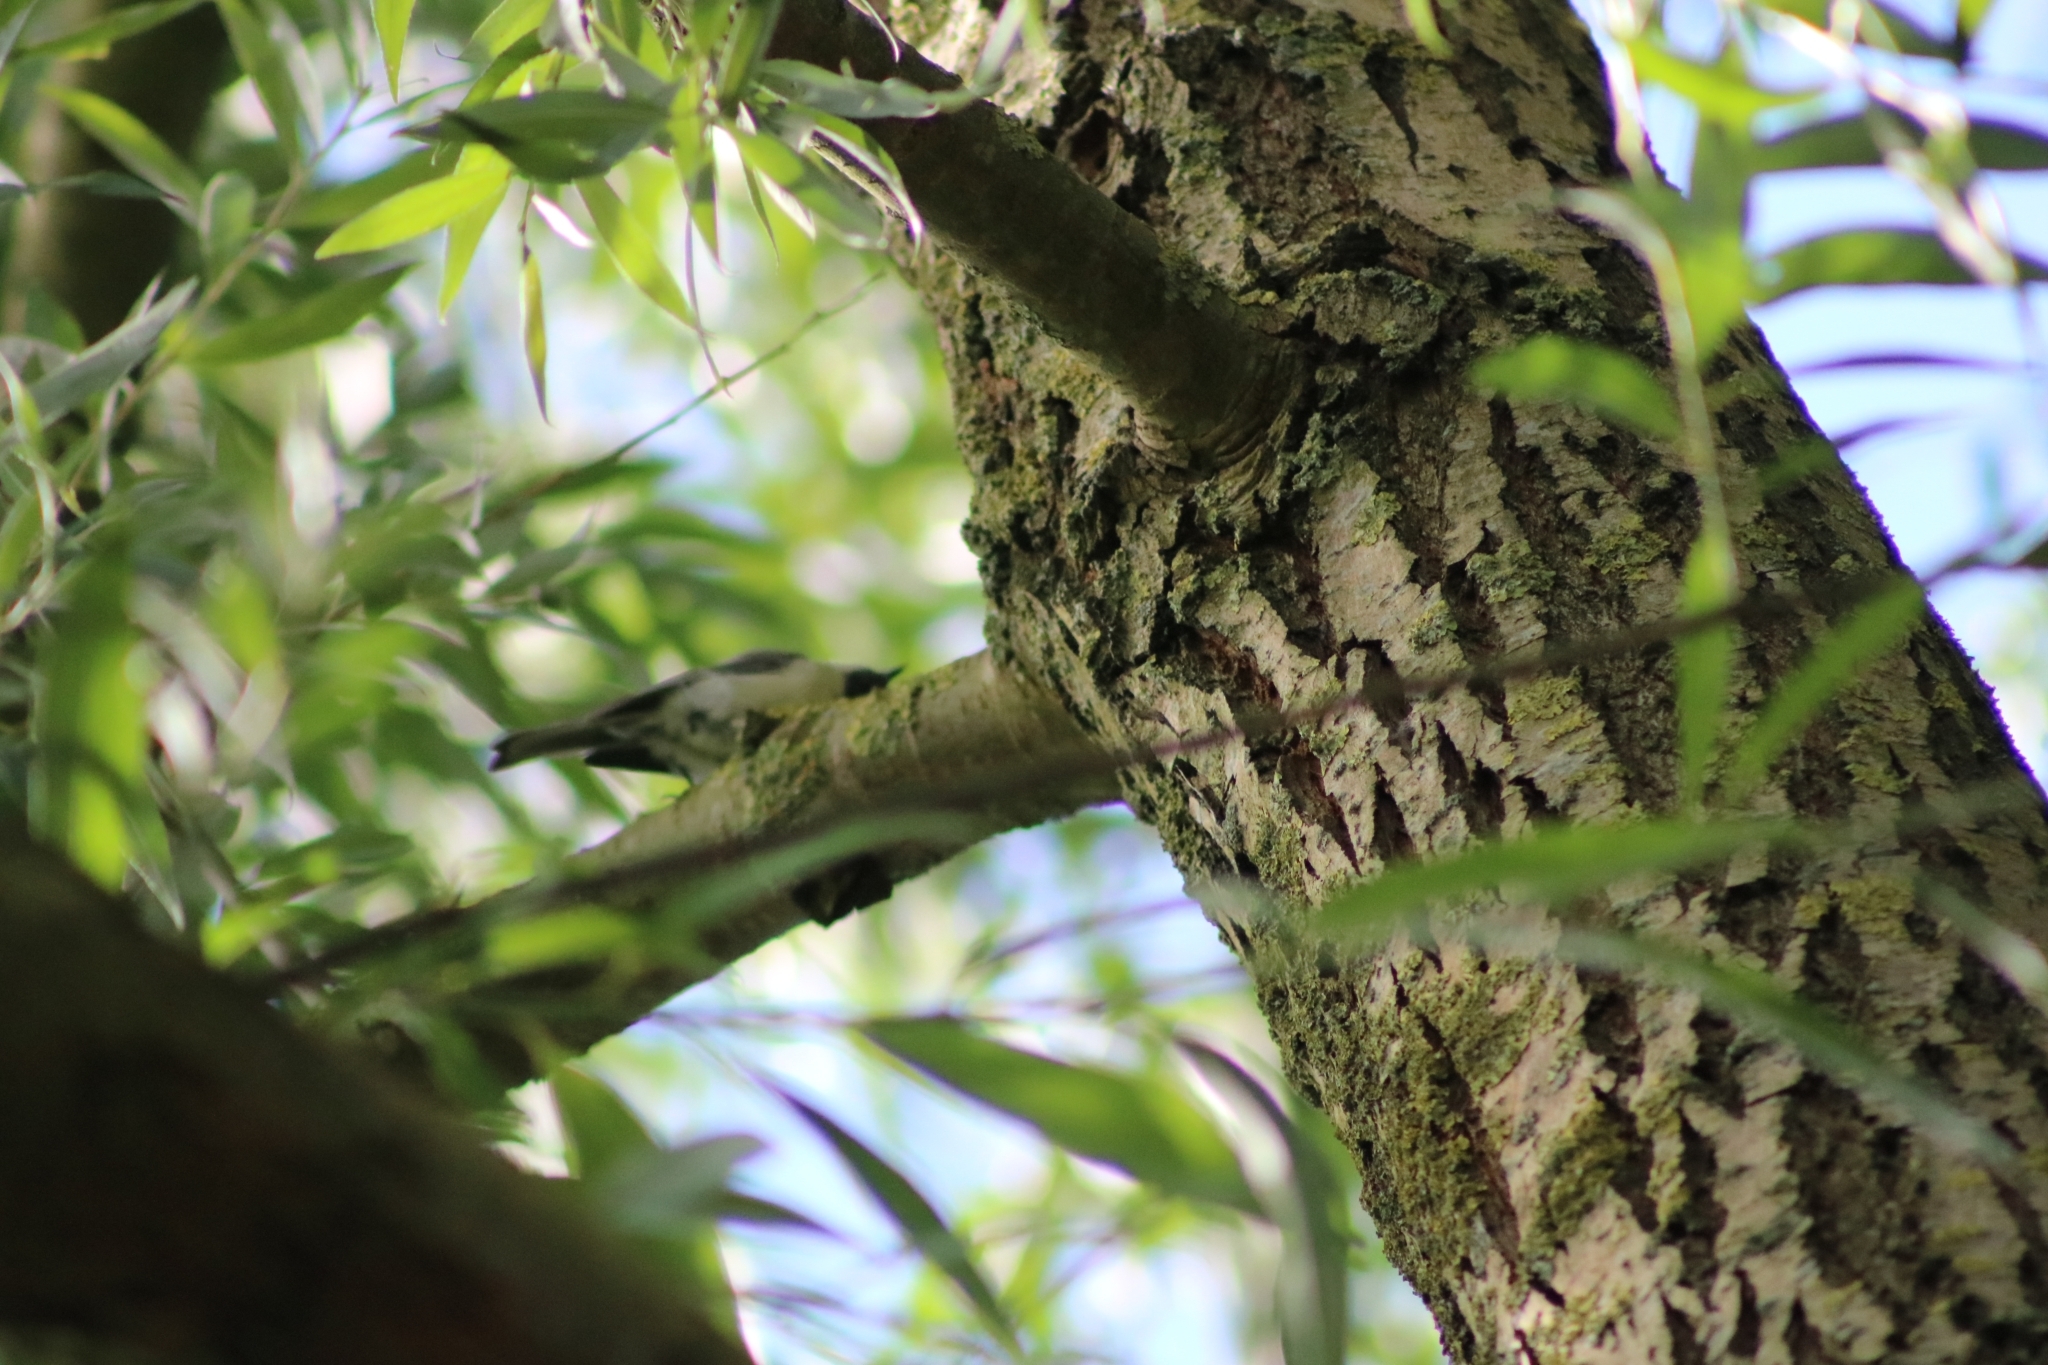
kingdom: Animalia
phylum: Chordata
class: Aves
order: Passeriformes
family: Paridae
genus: Parus
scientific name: Parus major
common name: Great tit
